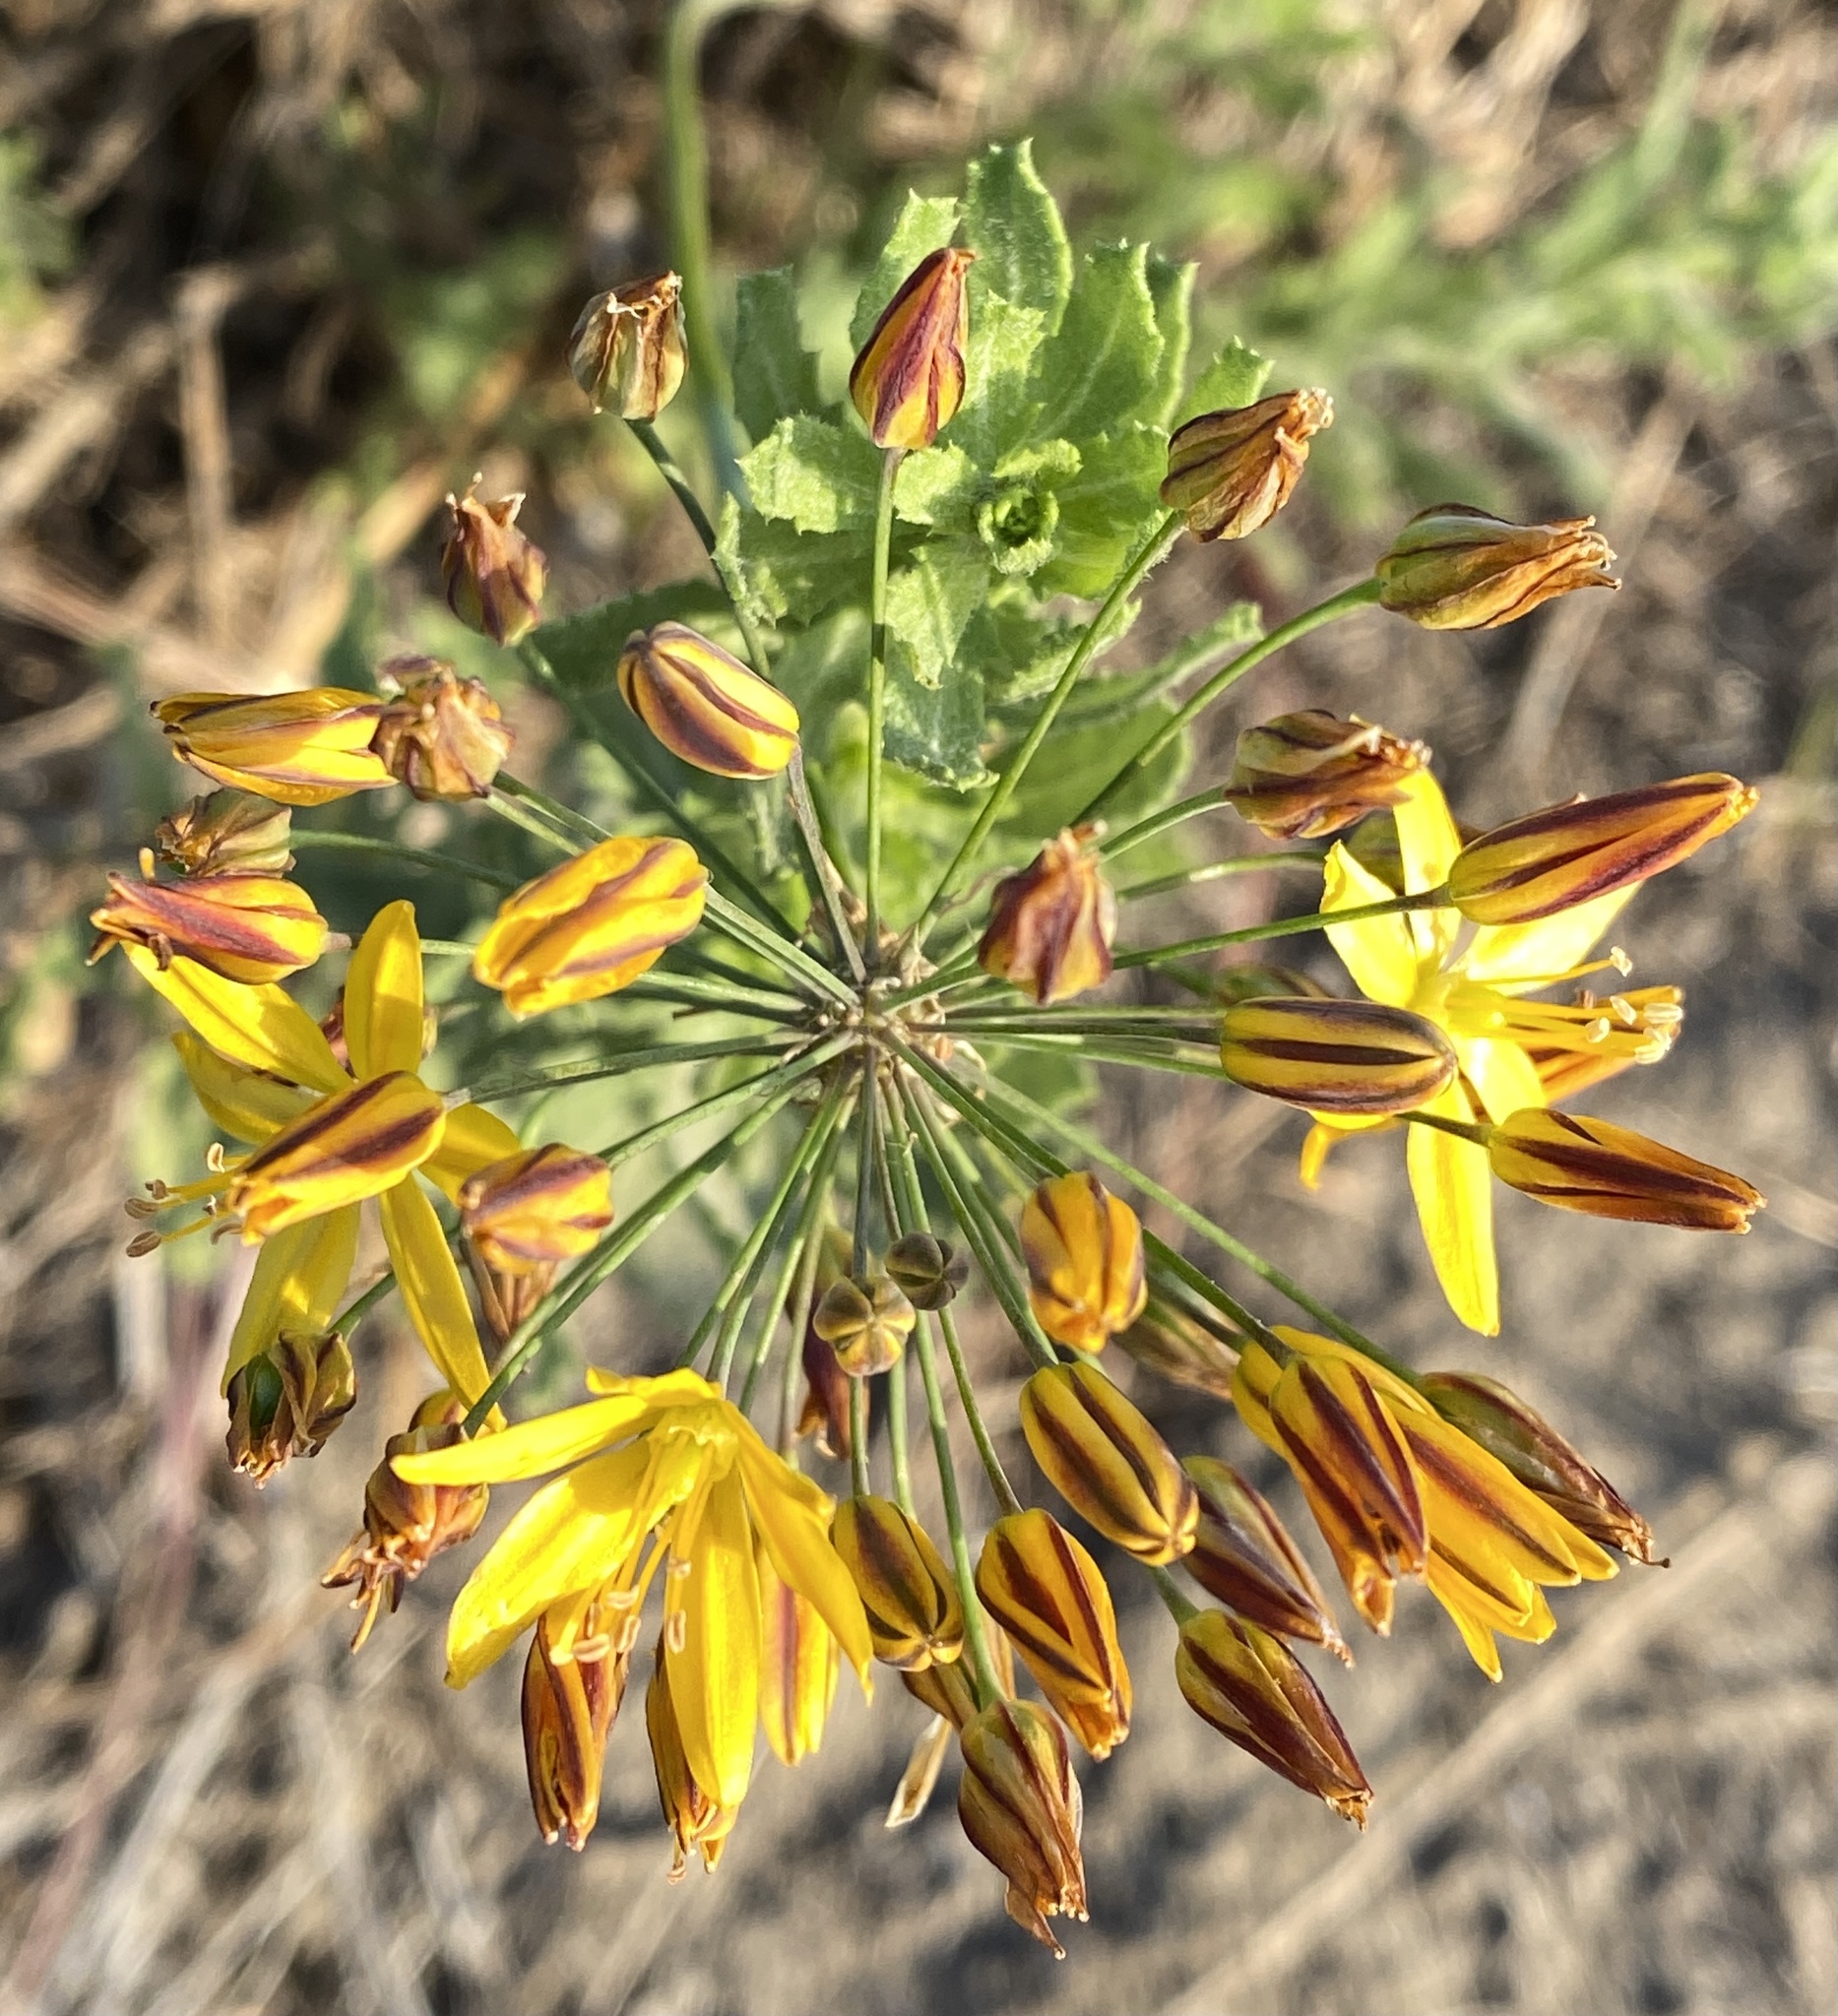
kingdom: Plantae
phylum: Tracheophyta
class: Liliopsida
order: Asparagales
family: Asparagaceae
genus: Bloomeria
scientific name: Bloomeria crocea
